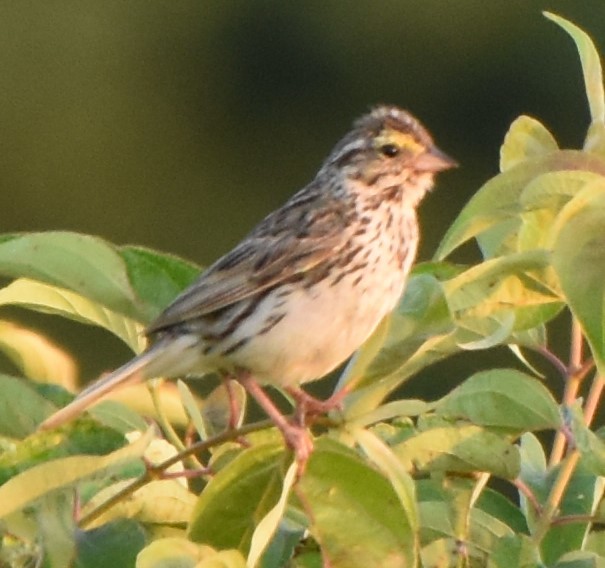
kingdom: Animalia
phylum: Chordata
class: Aves
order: Passeriformes
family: Passerellidae
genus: Passerculus
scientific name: Passerculus sandwichensis
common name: Savannah sparrow
